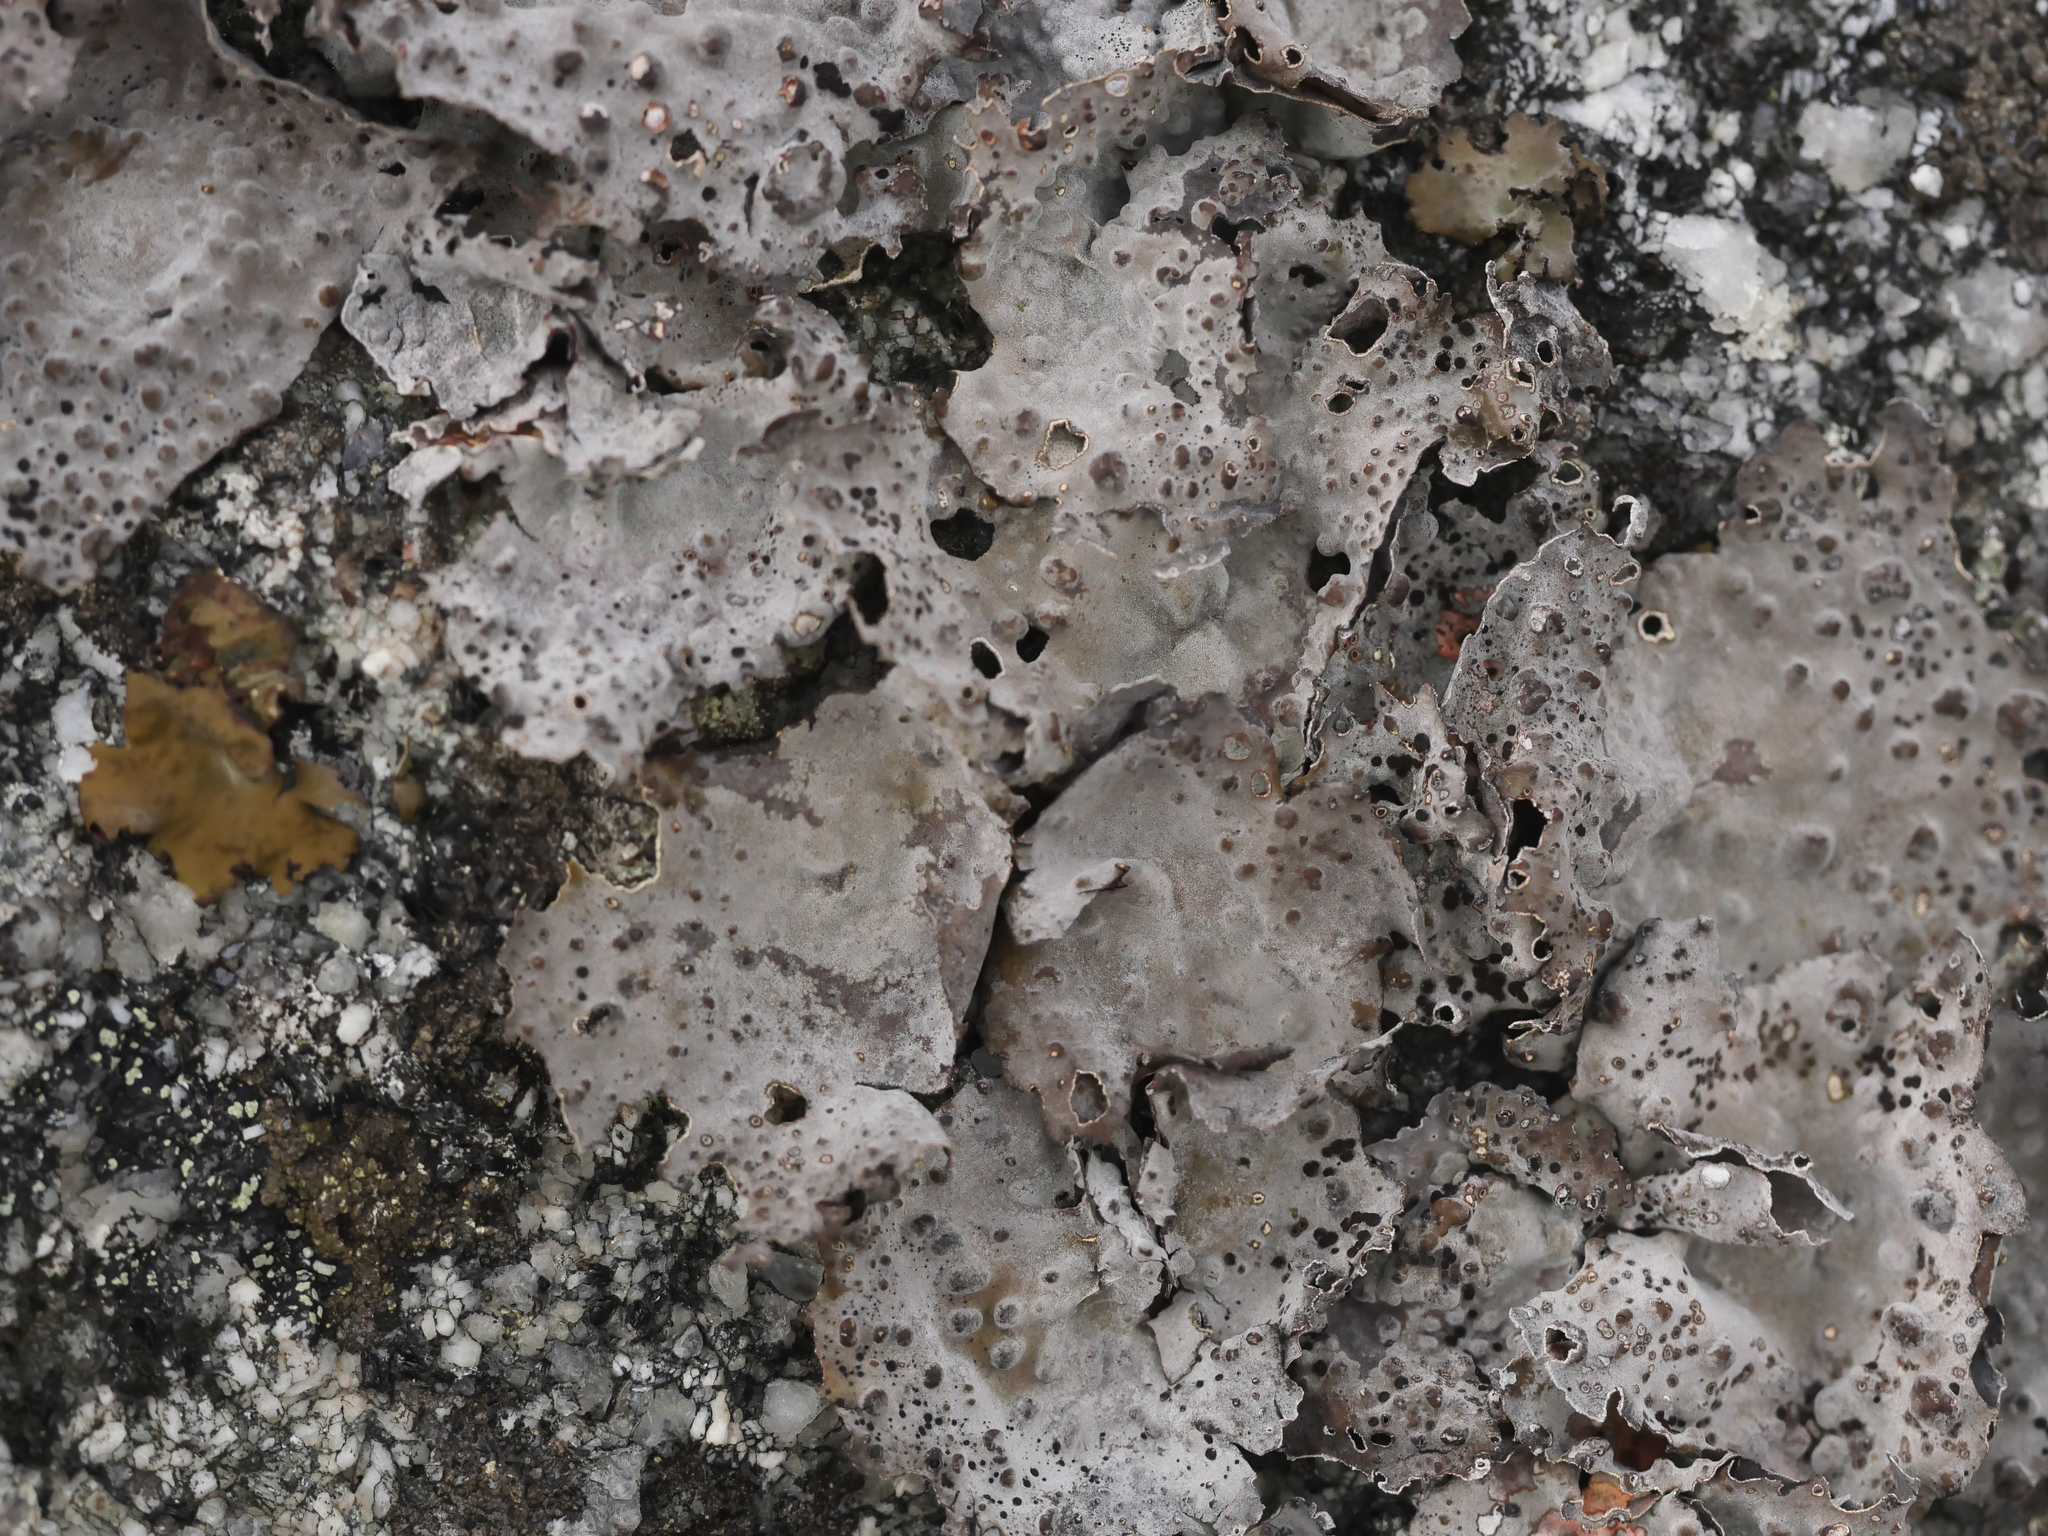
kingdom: Fungi
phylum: Ascomycota
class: Lecanoromycetes
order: Umbilicariales
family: Umbilicariaceae
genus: Lasallia
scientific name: Lasallia papulosa
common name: Common toadskin lichen
